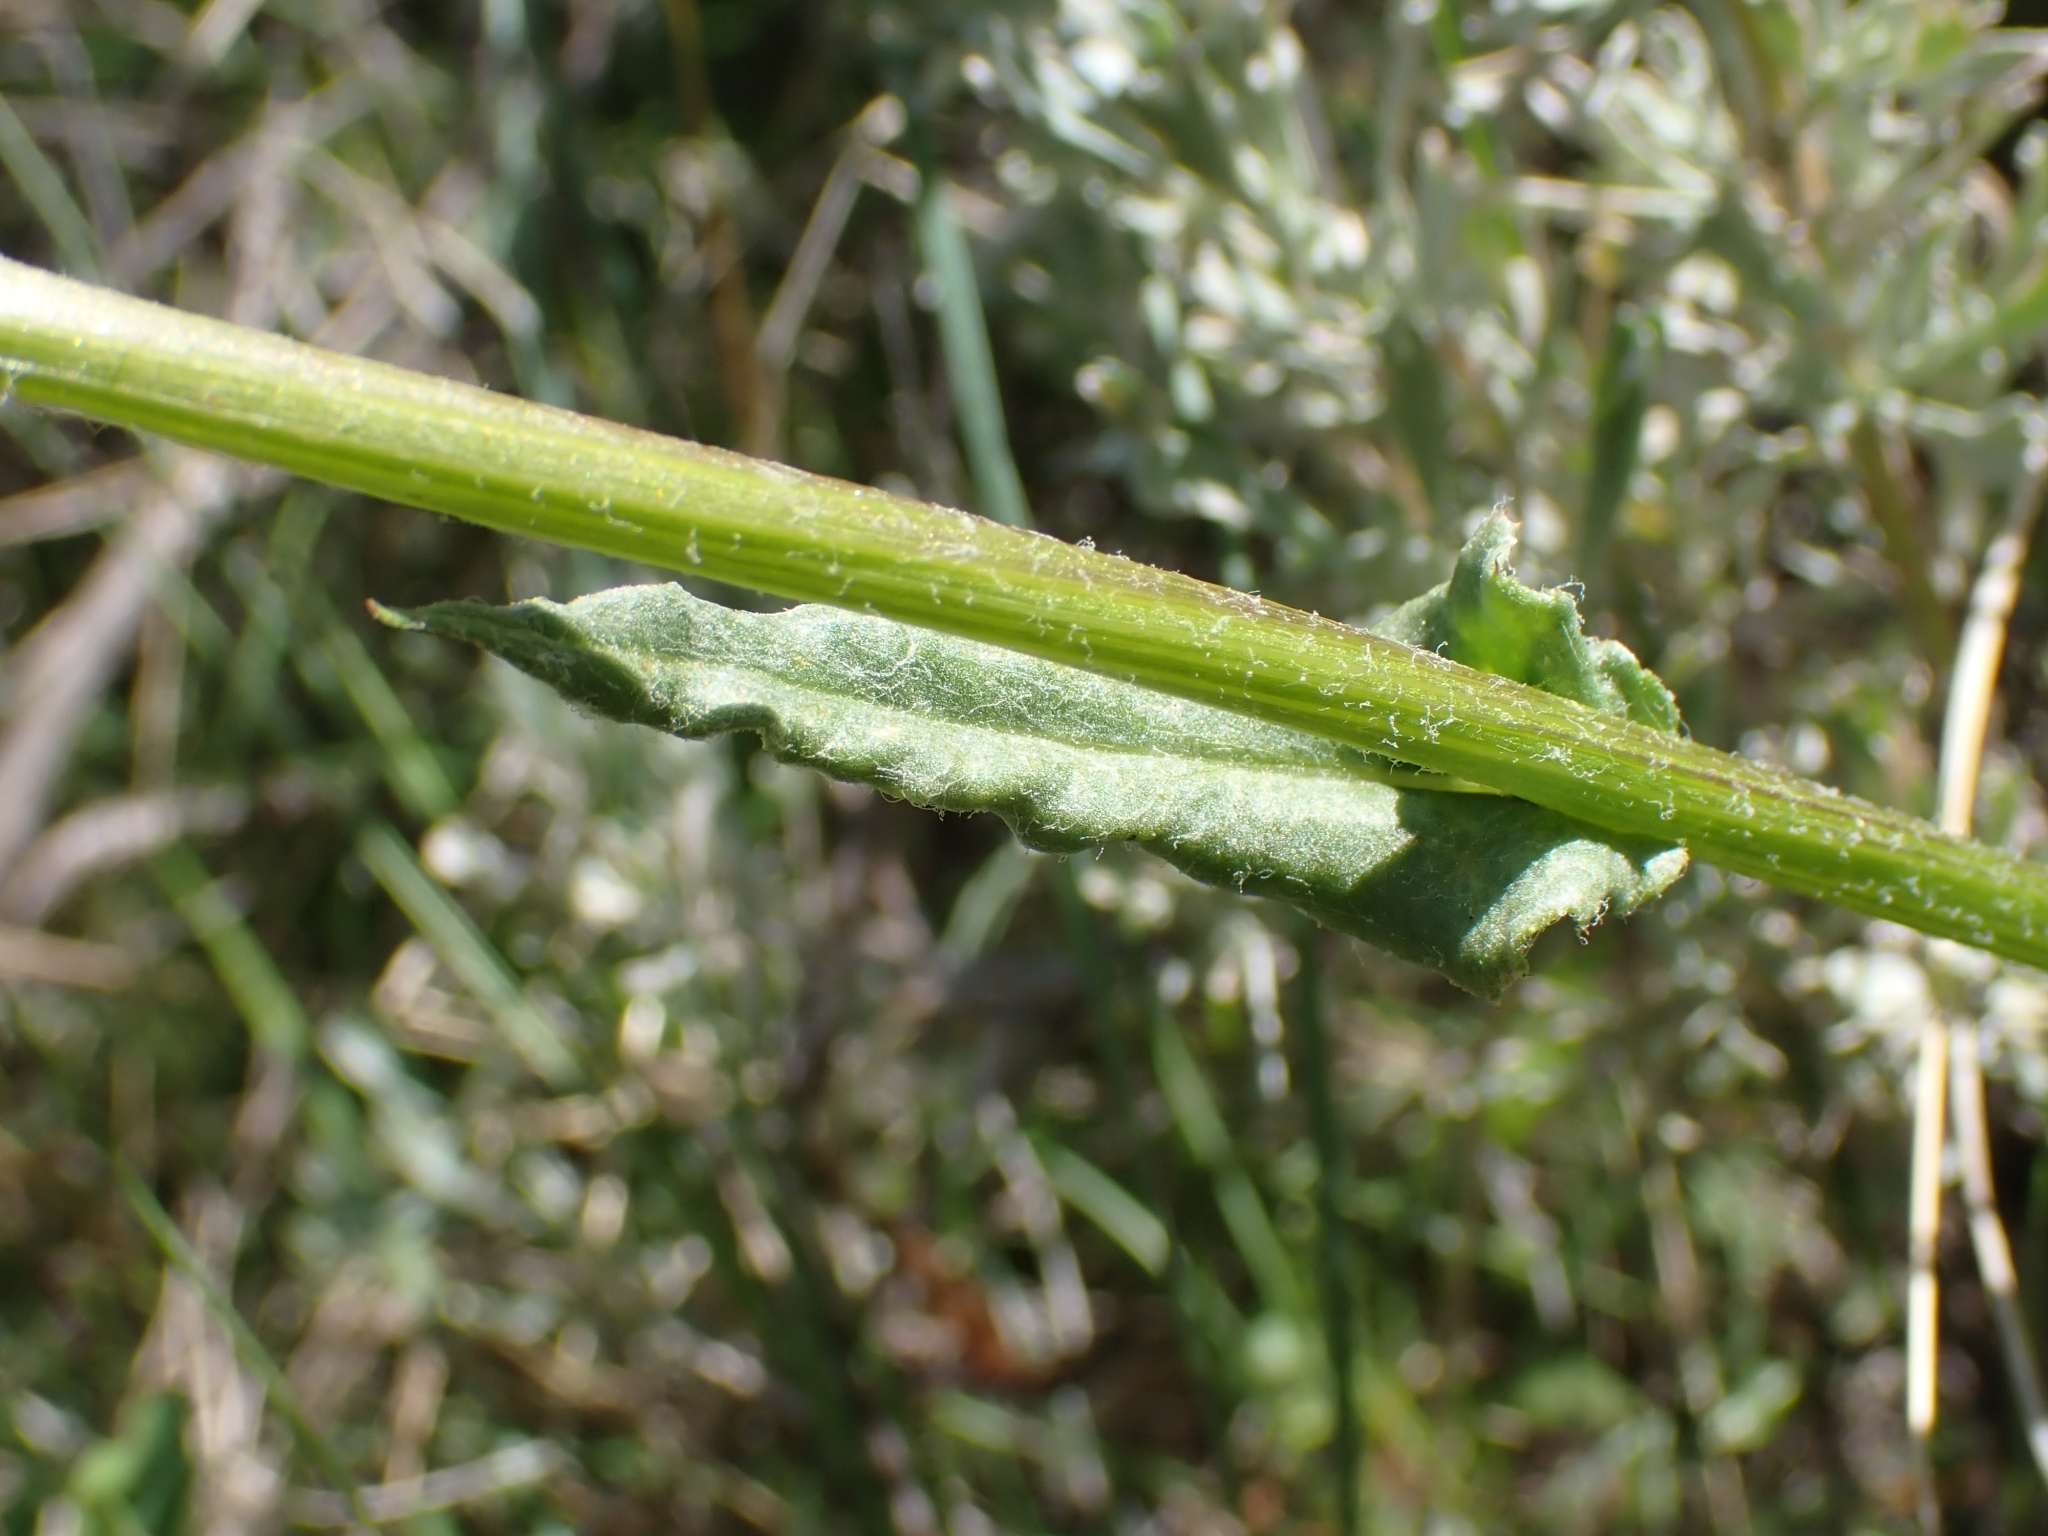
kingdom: Plantae
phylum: Tracheophyta
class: Magnoliopsida
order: Asterales
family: Asteraceae
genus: Senecio
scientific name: Senecio integerrimus
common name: Gaugeplant
